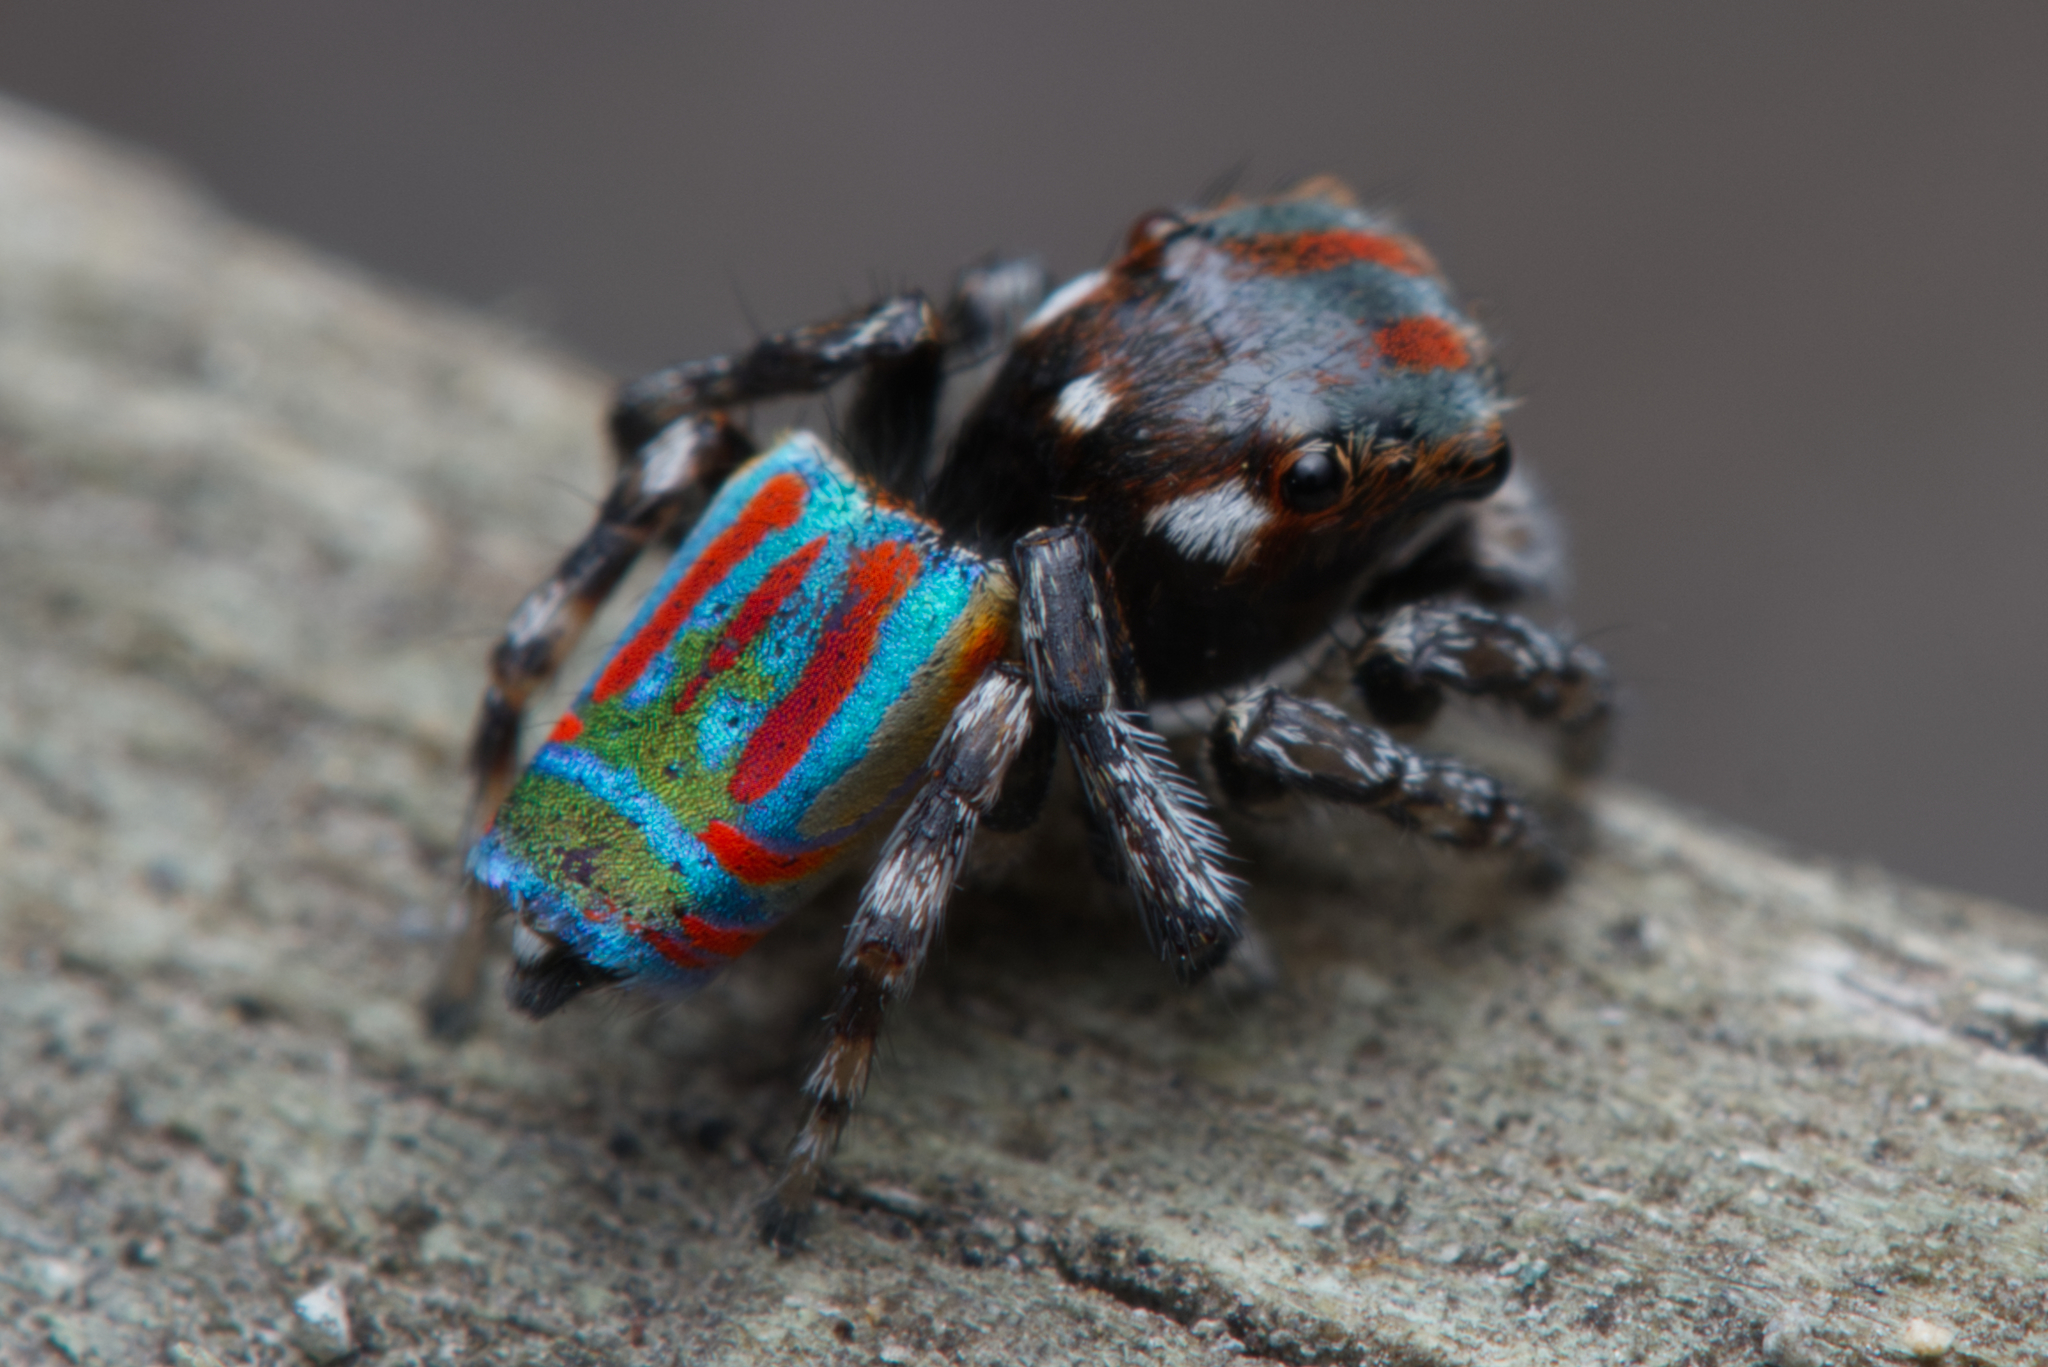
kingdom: Animalia
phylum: Arthropoda
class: Arachnida
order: Araneae
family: Salticidae
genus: Maratus
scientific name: Maratus volans
